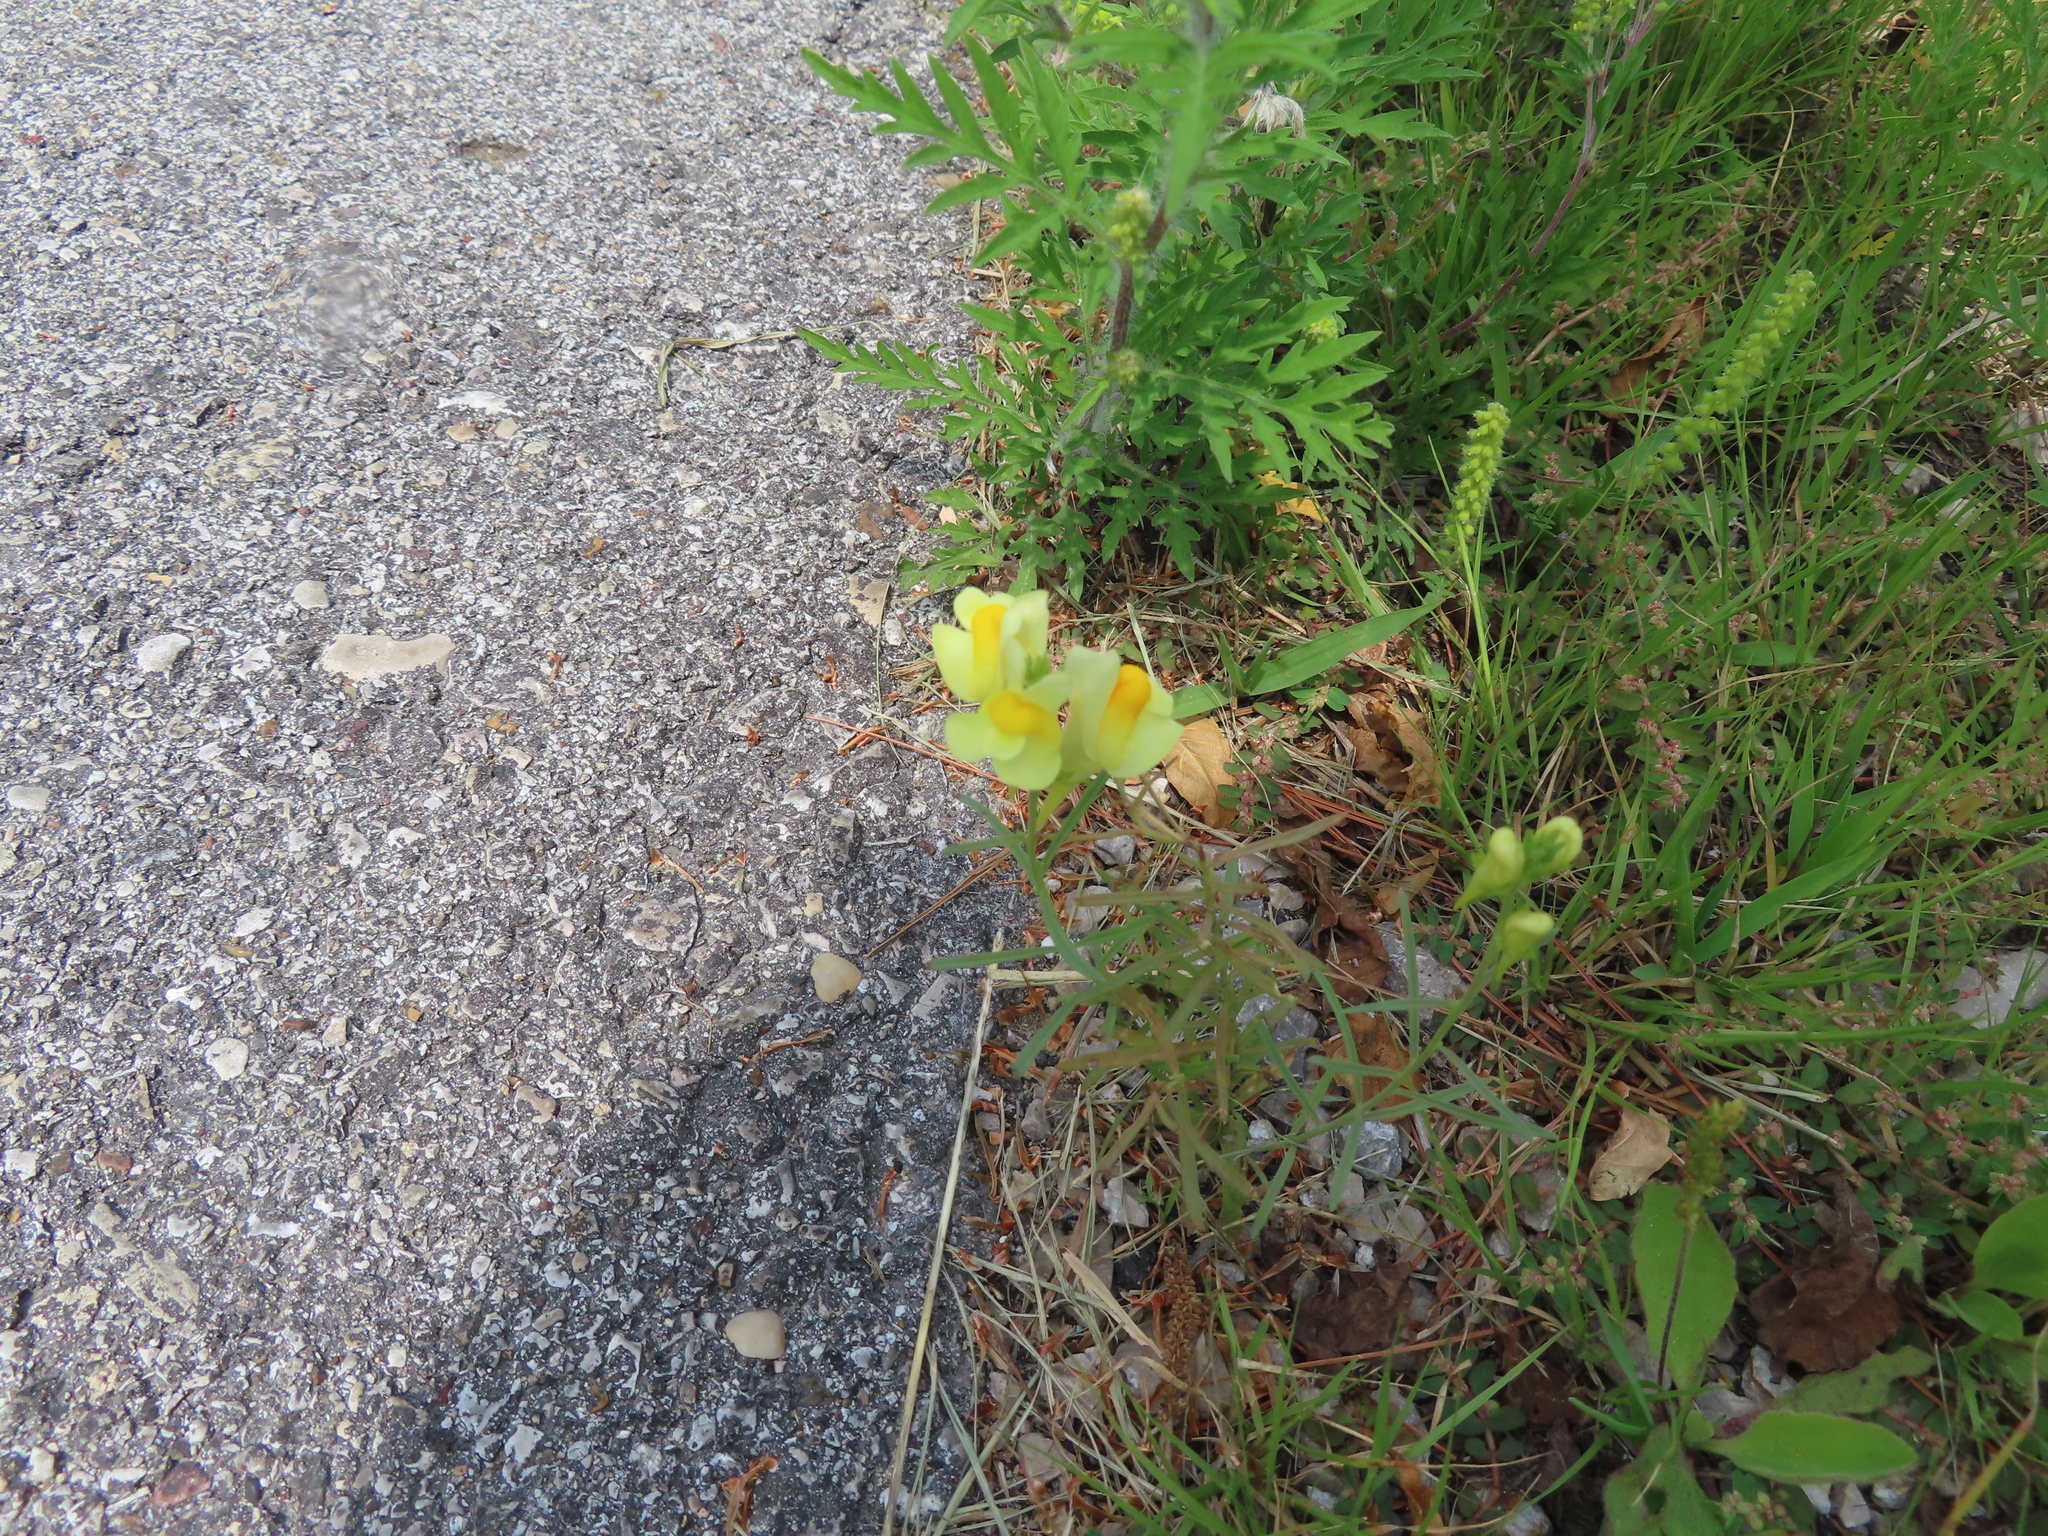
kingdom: Plantae
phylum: Tracheophyta
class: Magnoliopsida
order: Lamiales
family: Plantaginaceae
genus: Linaria
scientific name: Linaria vulgaris
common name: Butter and eggs
